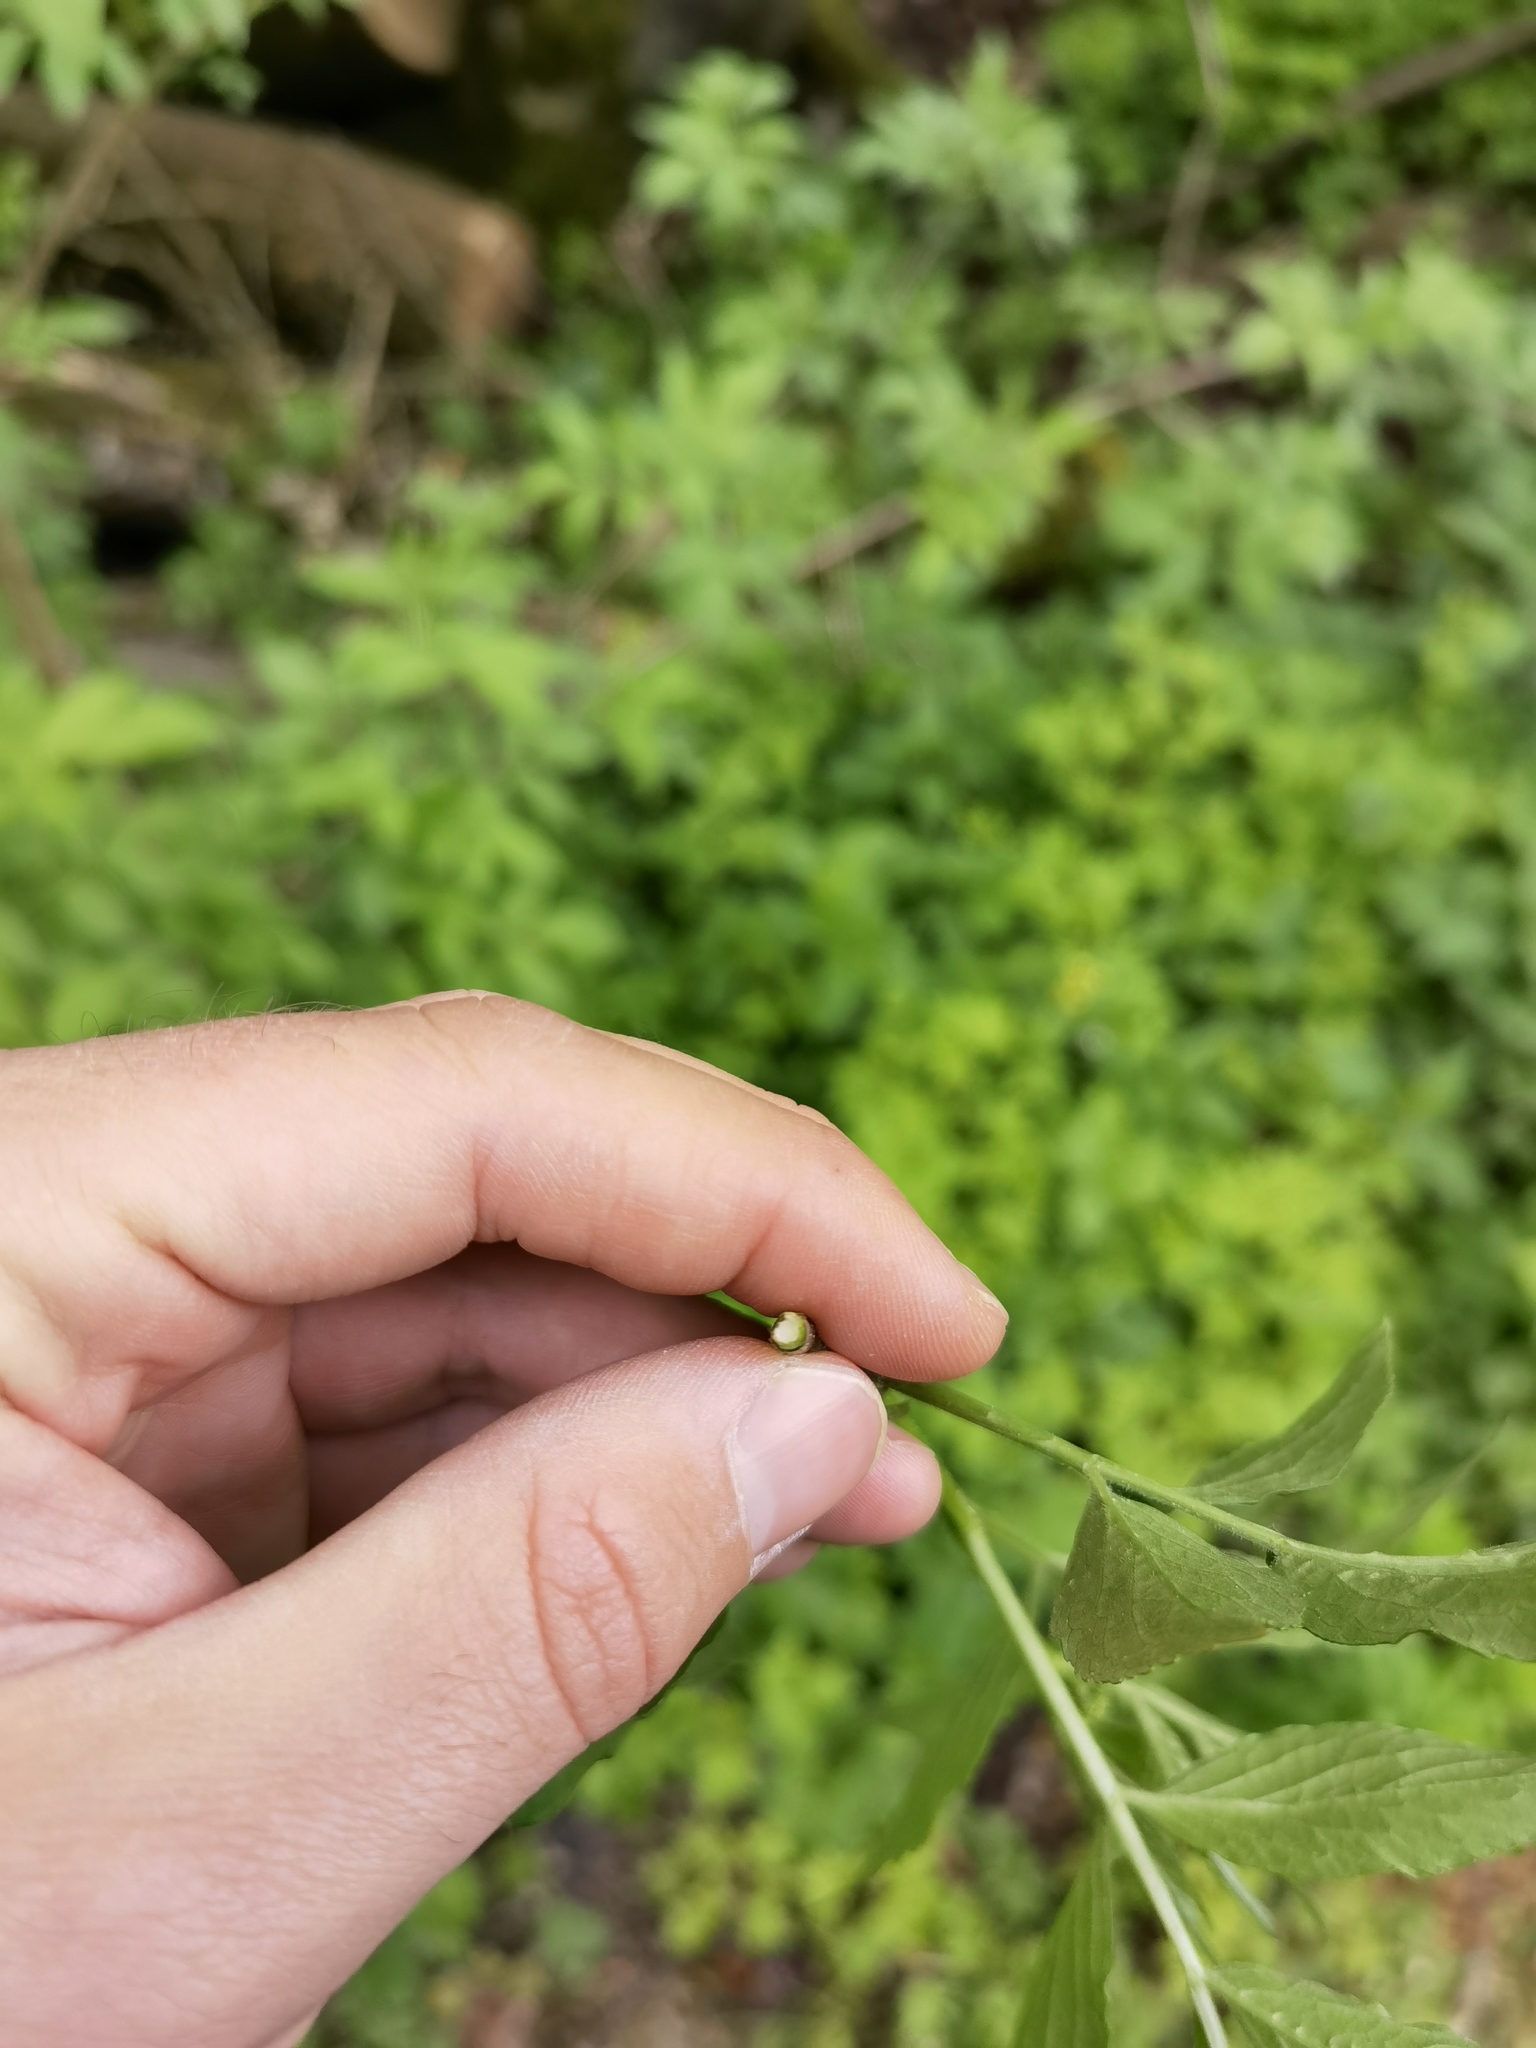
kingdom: Plantae
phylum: Tracheophyta
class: Magnoliopsida
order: Dipsacales
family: Viburnaceae
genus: Sambucus
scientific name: Sambucus nigra
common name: Elder
